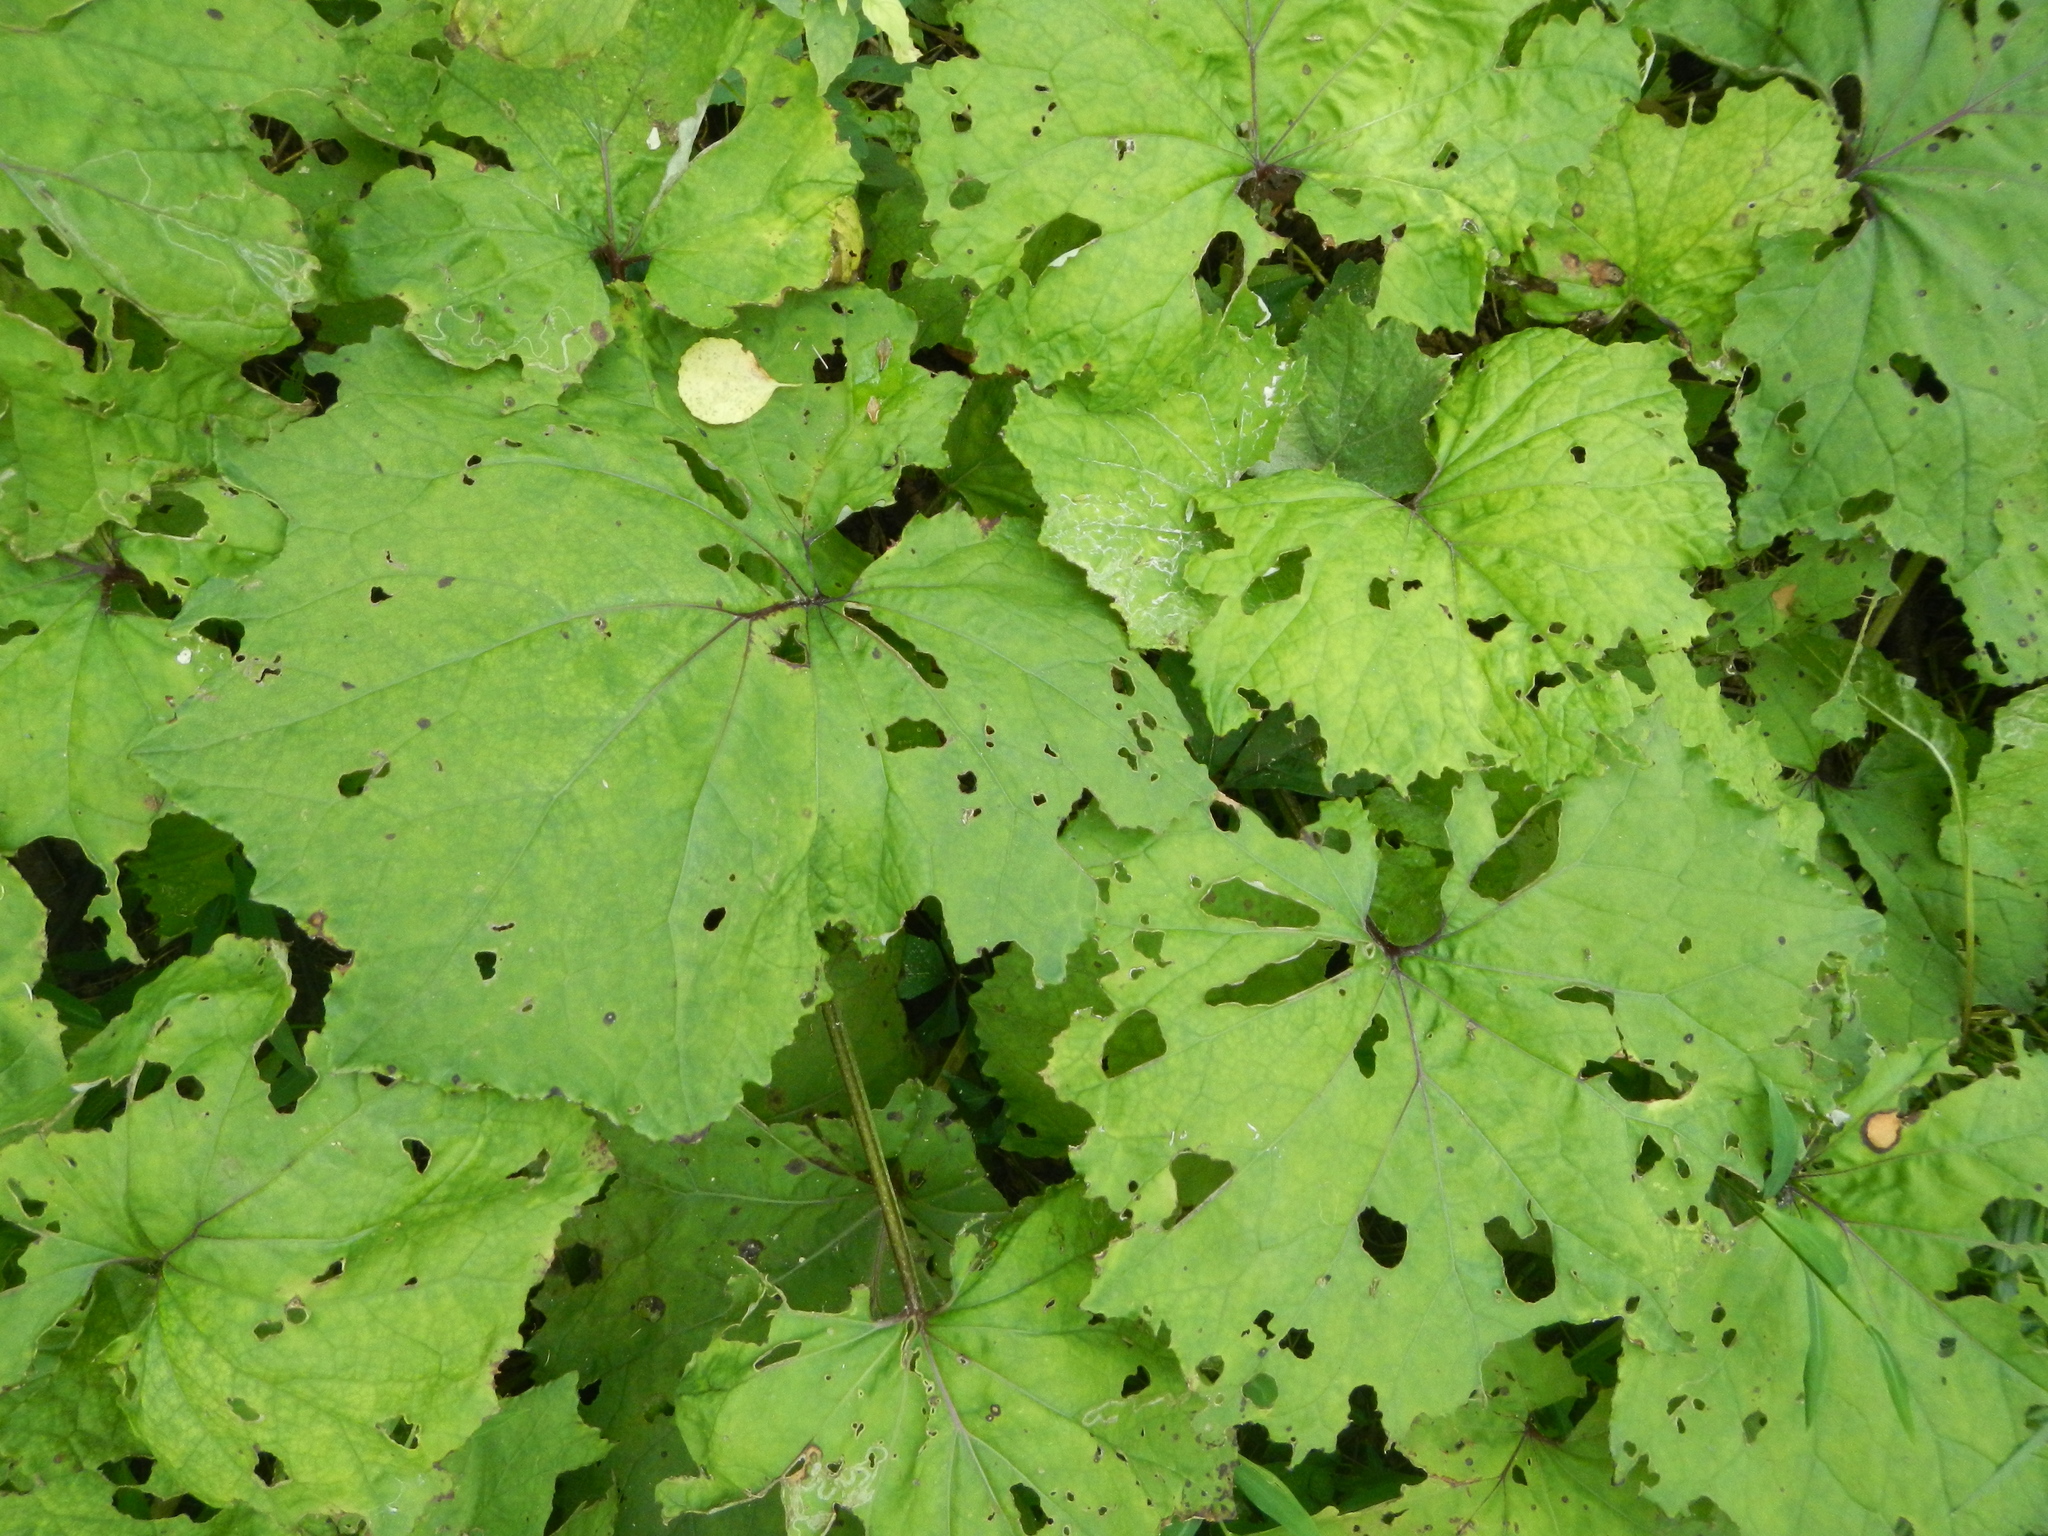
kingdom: Plantae
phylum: Tracheophyta
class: Magnoliopsida
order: Asterales
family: Asteraceae
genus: Tussilago
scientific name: Tussilago farfara
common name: Coltsfoot
